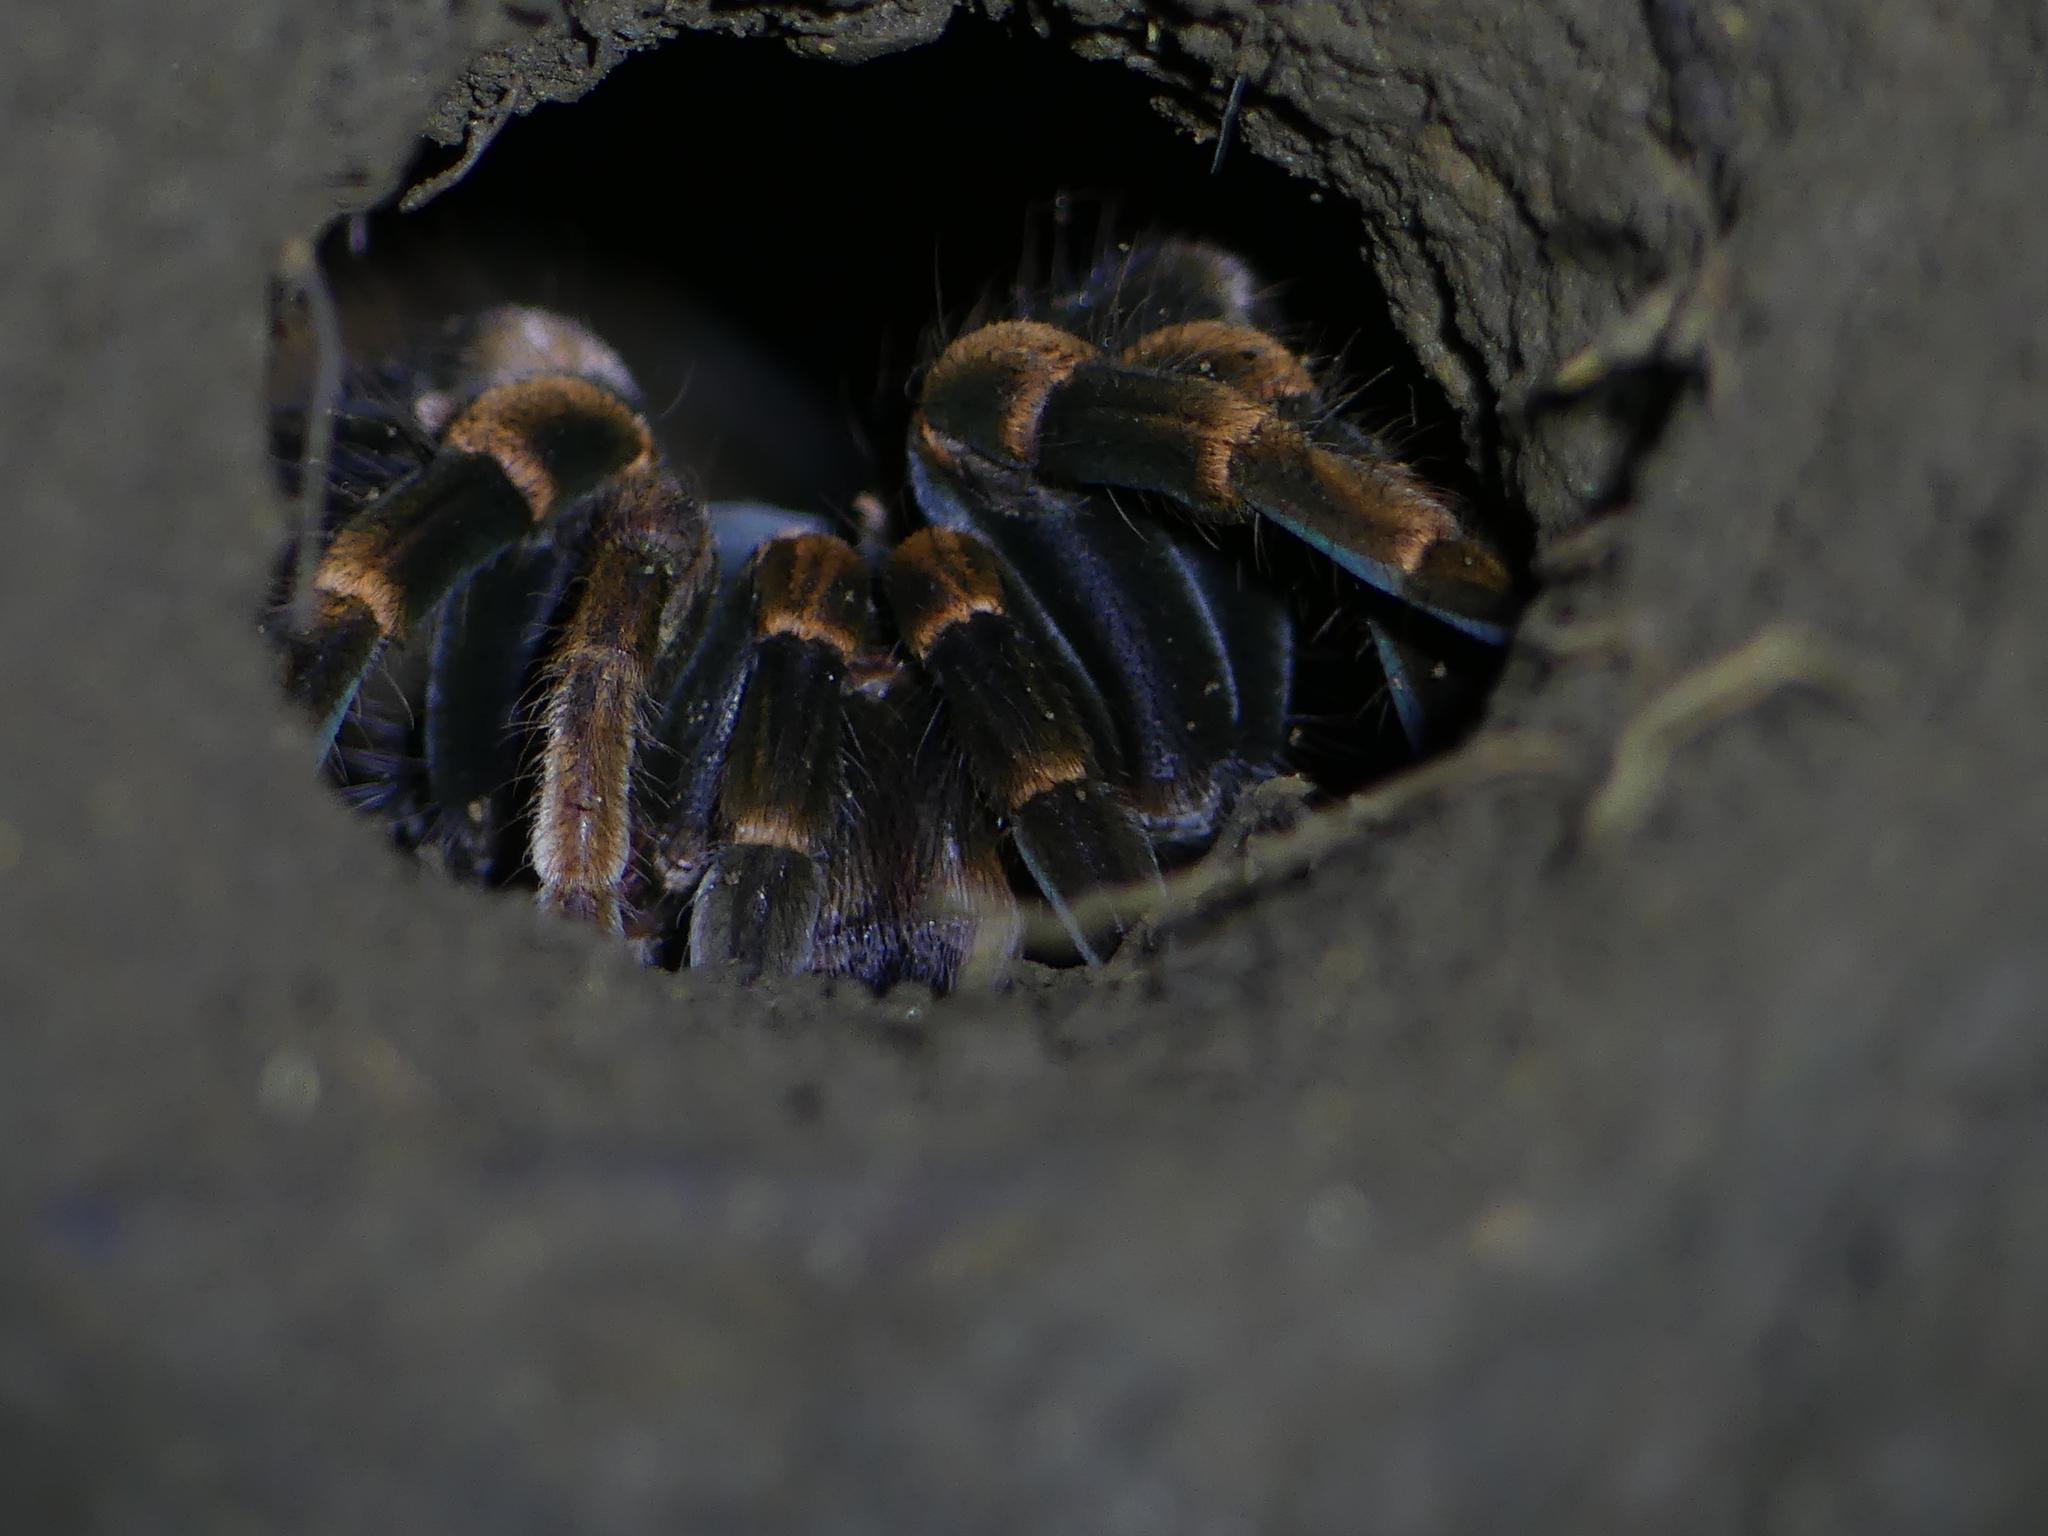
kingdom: Animalia
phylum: Arthropoda
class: Arachnida
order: Araneae
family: Theraphosidae
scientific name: Theraphosidae
